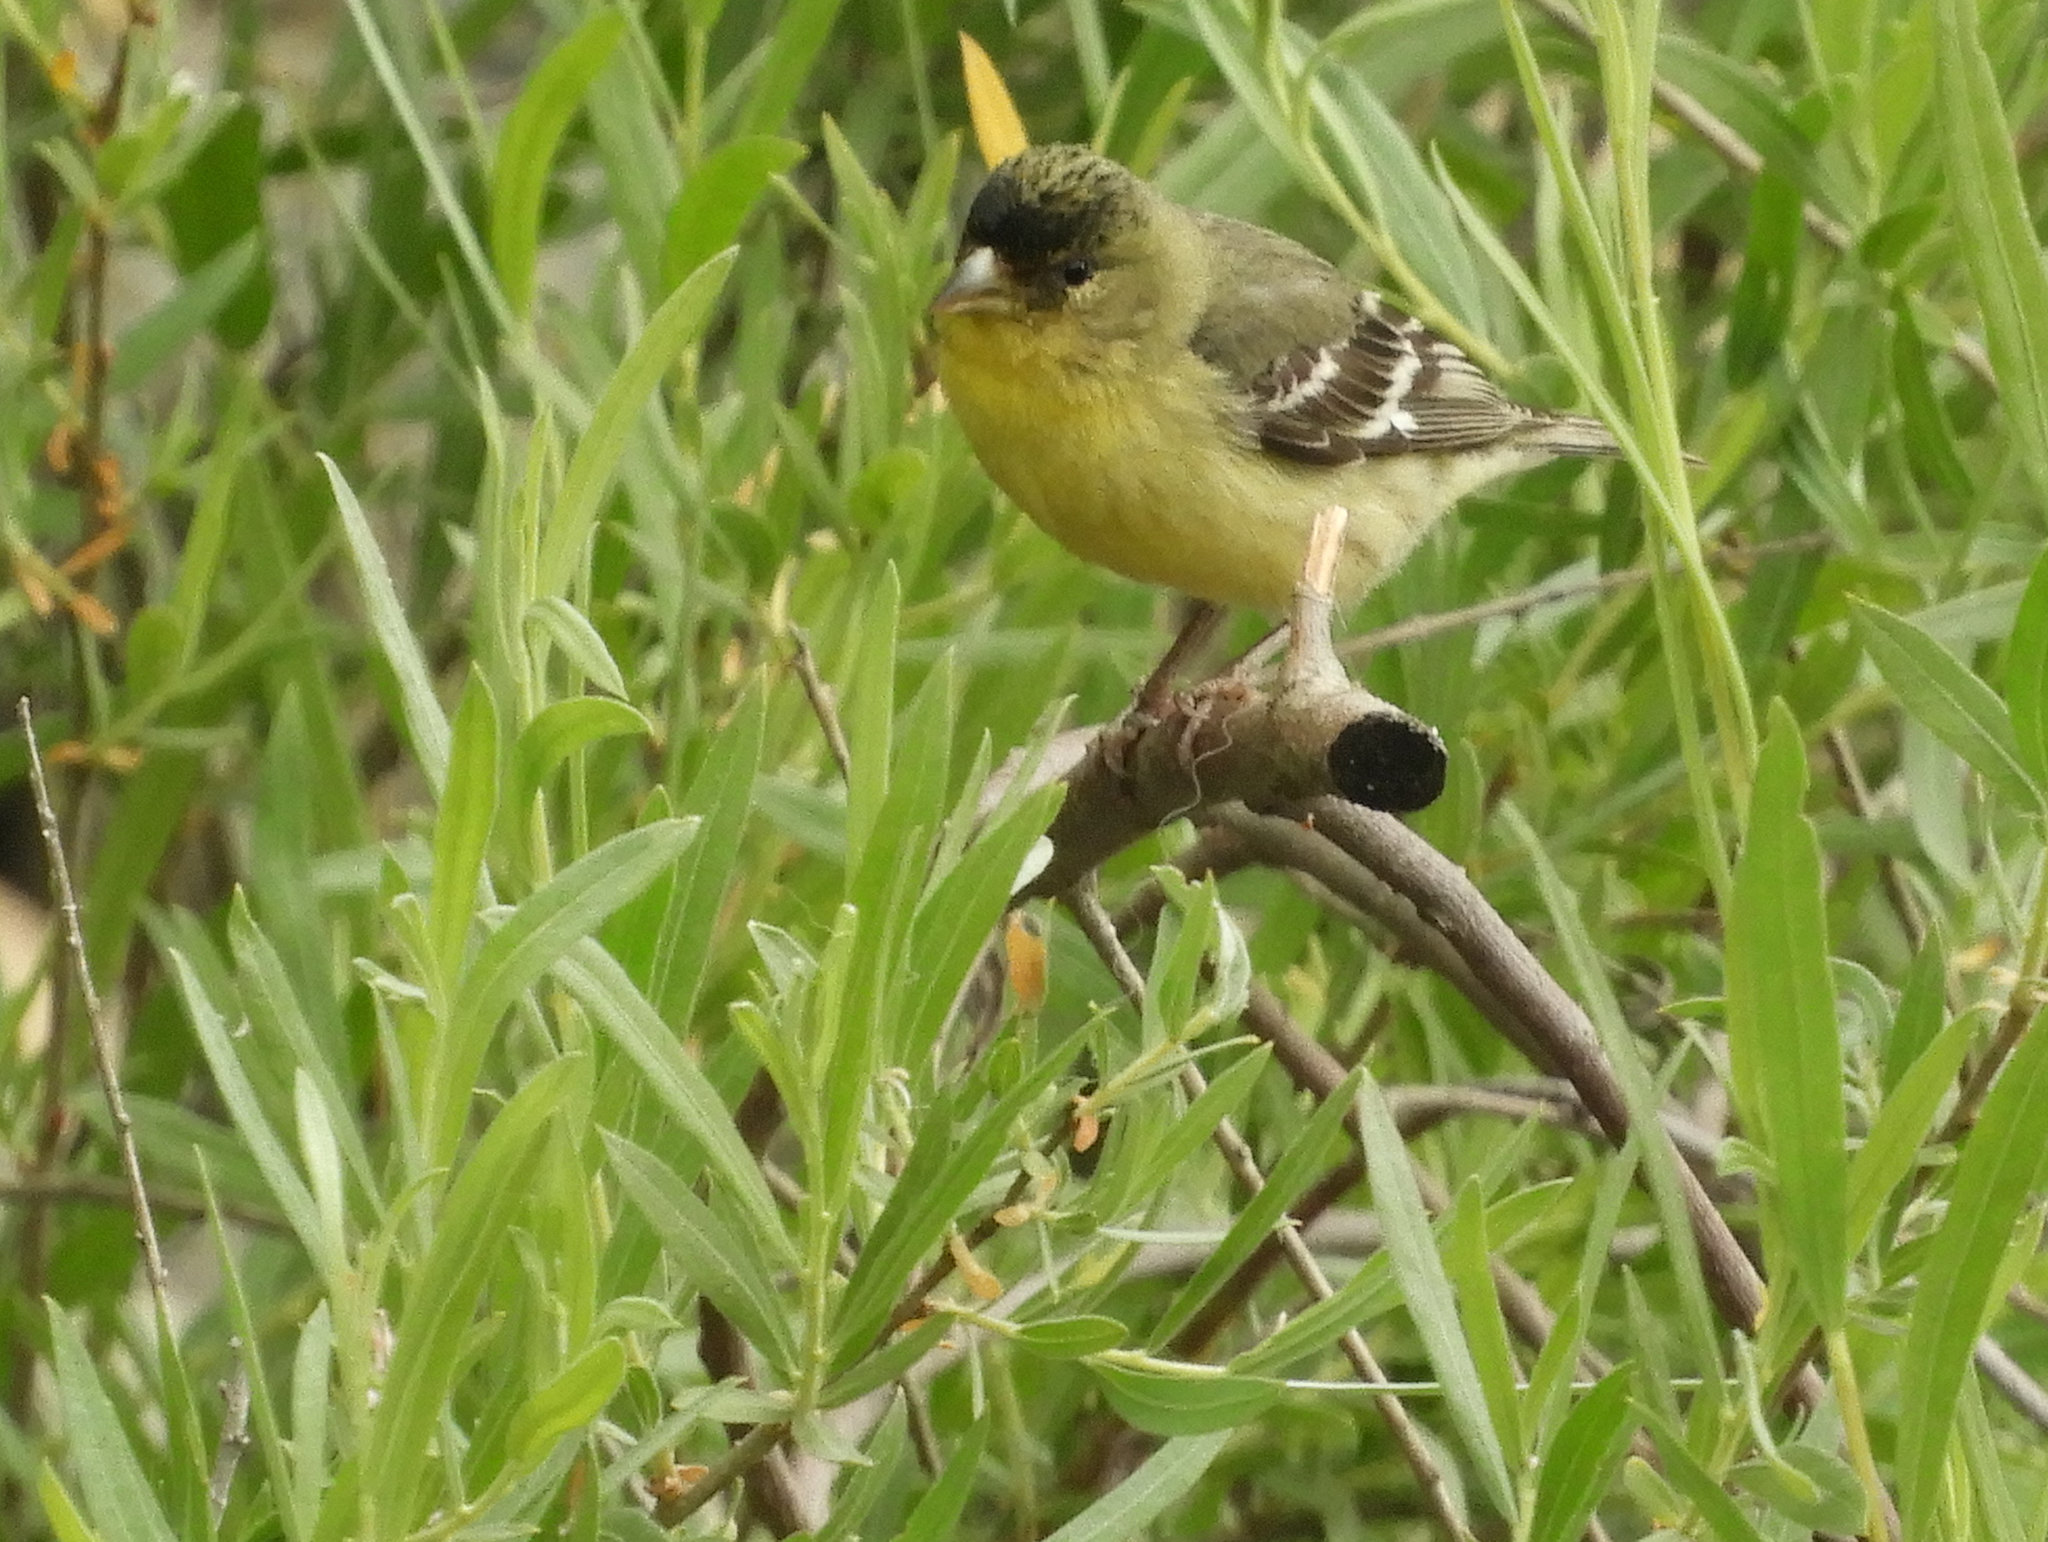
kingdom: Animalia
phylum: Chordata
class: Aves
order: Passeriformes
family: Fringillidae
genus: Spinus
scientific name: Spinus psaltria
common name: Lesser goldfinch
